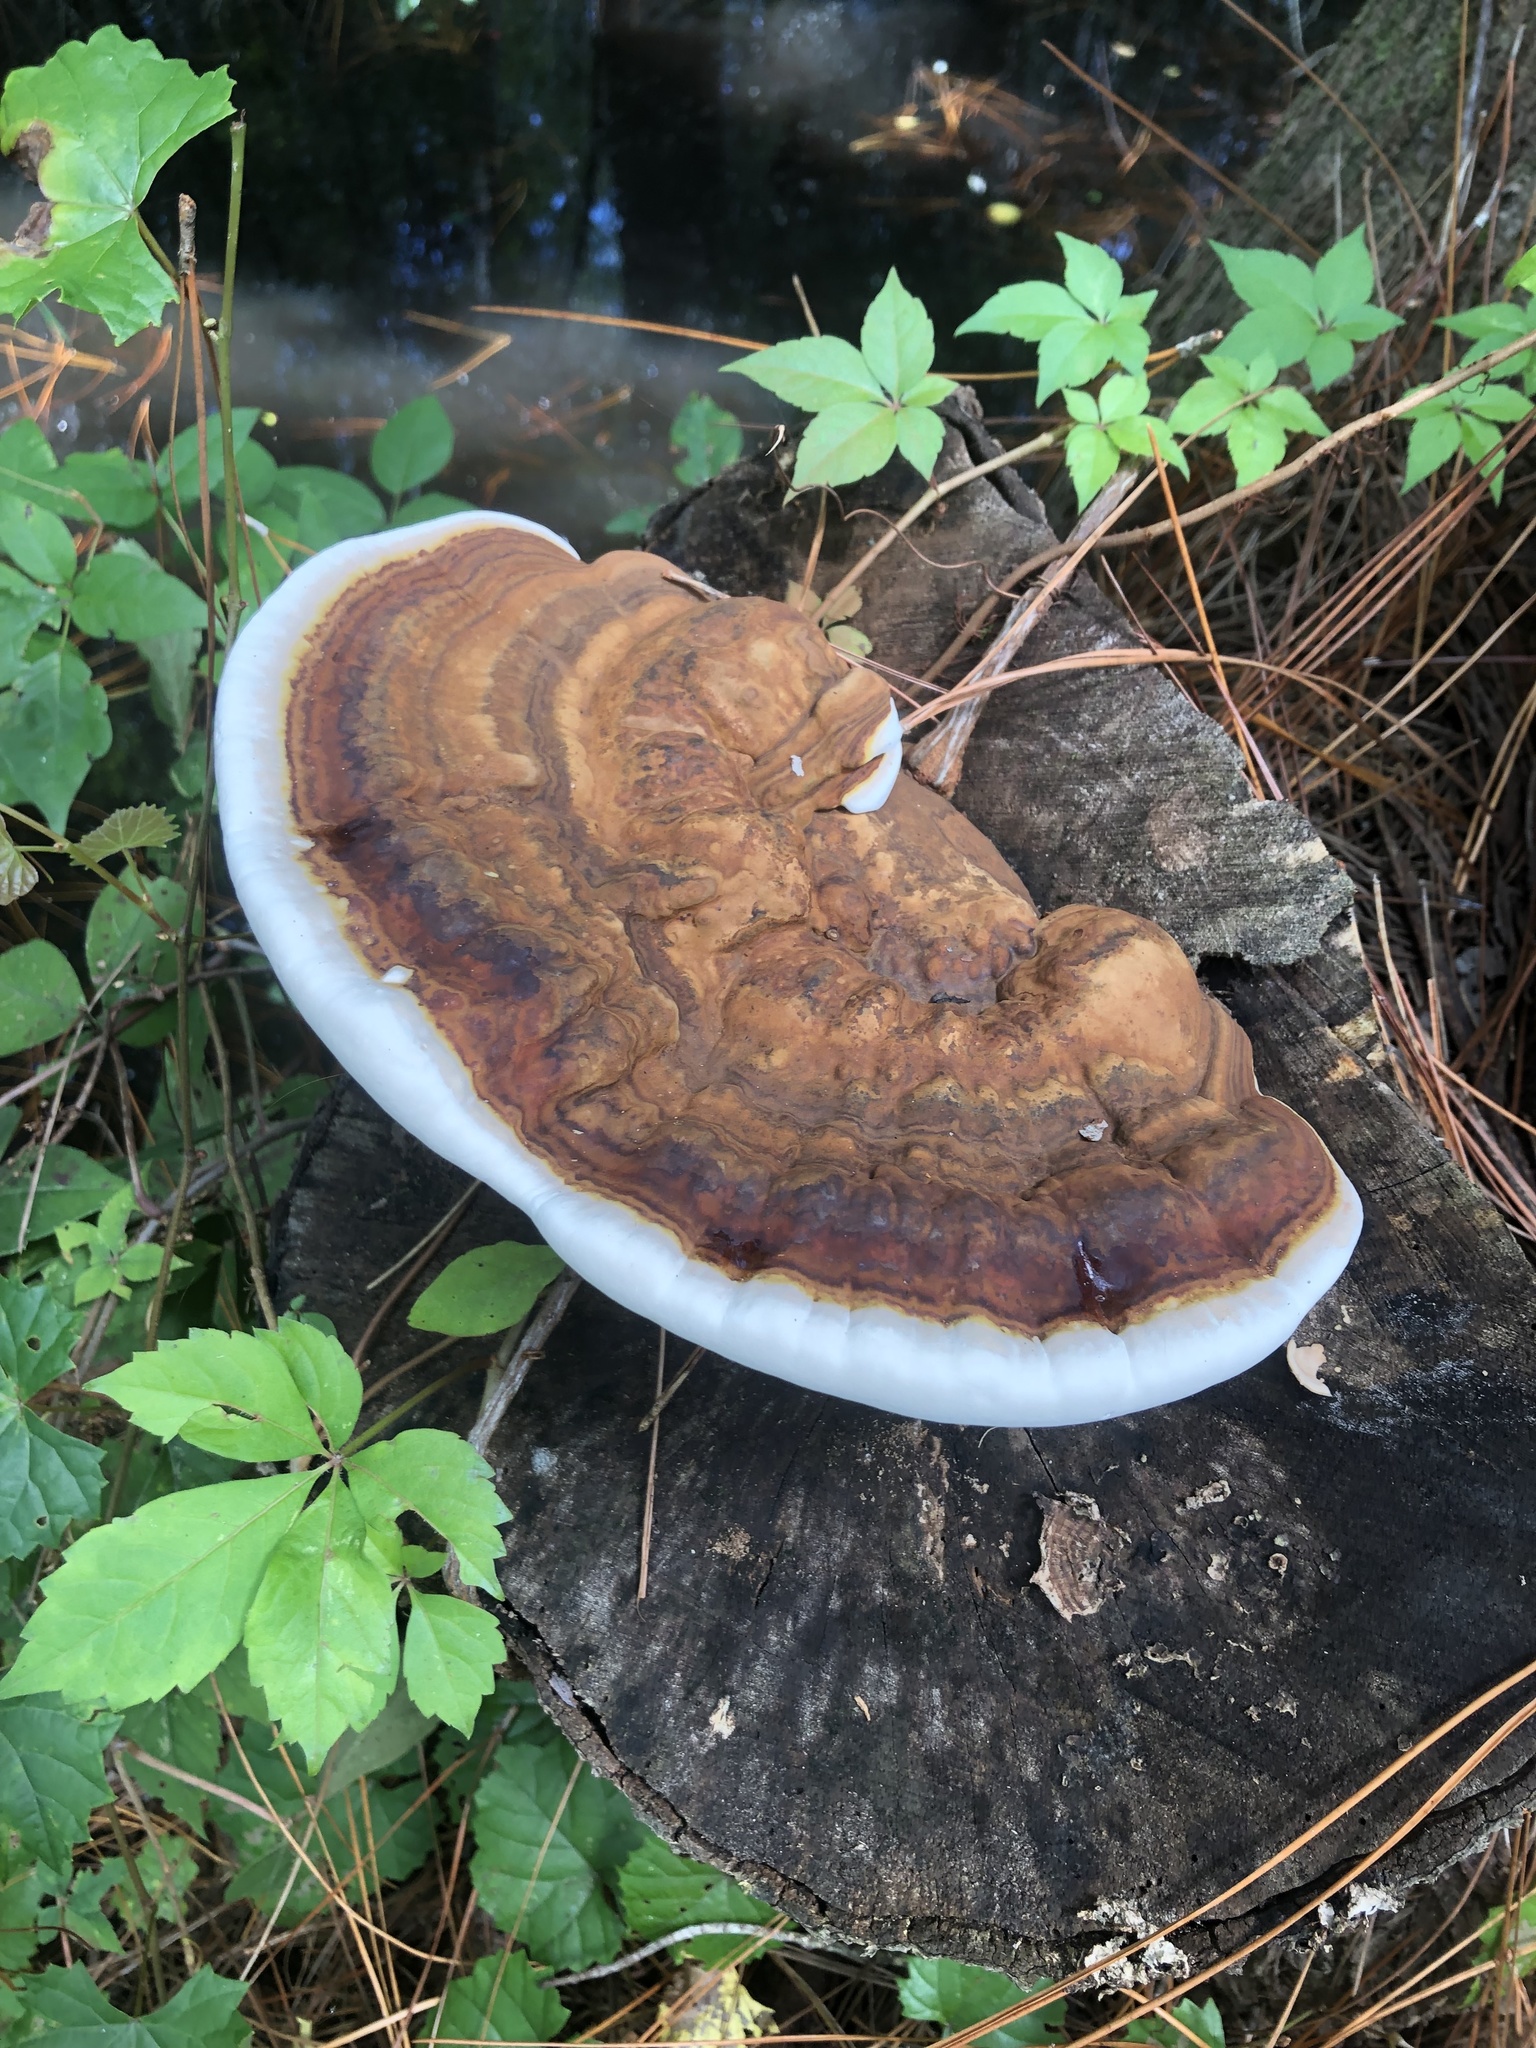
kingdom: Fungi
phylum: Basidiomycota
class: Agaricomycetes
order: Polyporales
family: Polyporaceae
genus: Ganoderma
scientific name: Ganoderma lobatum
